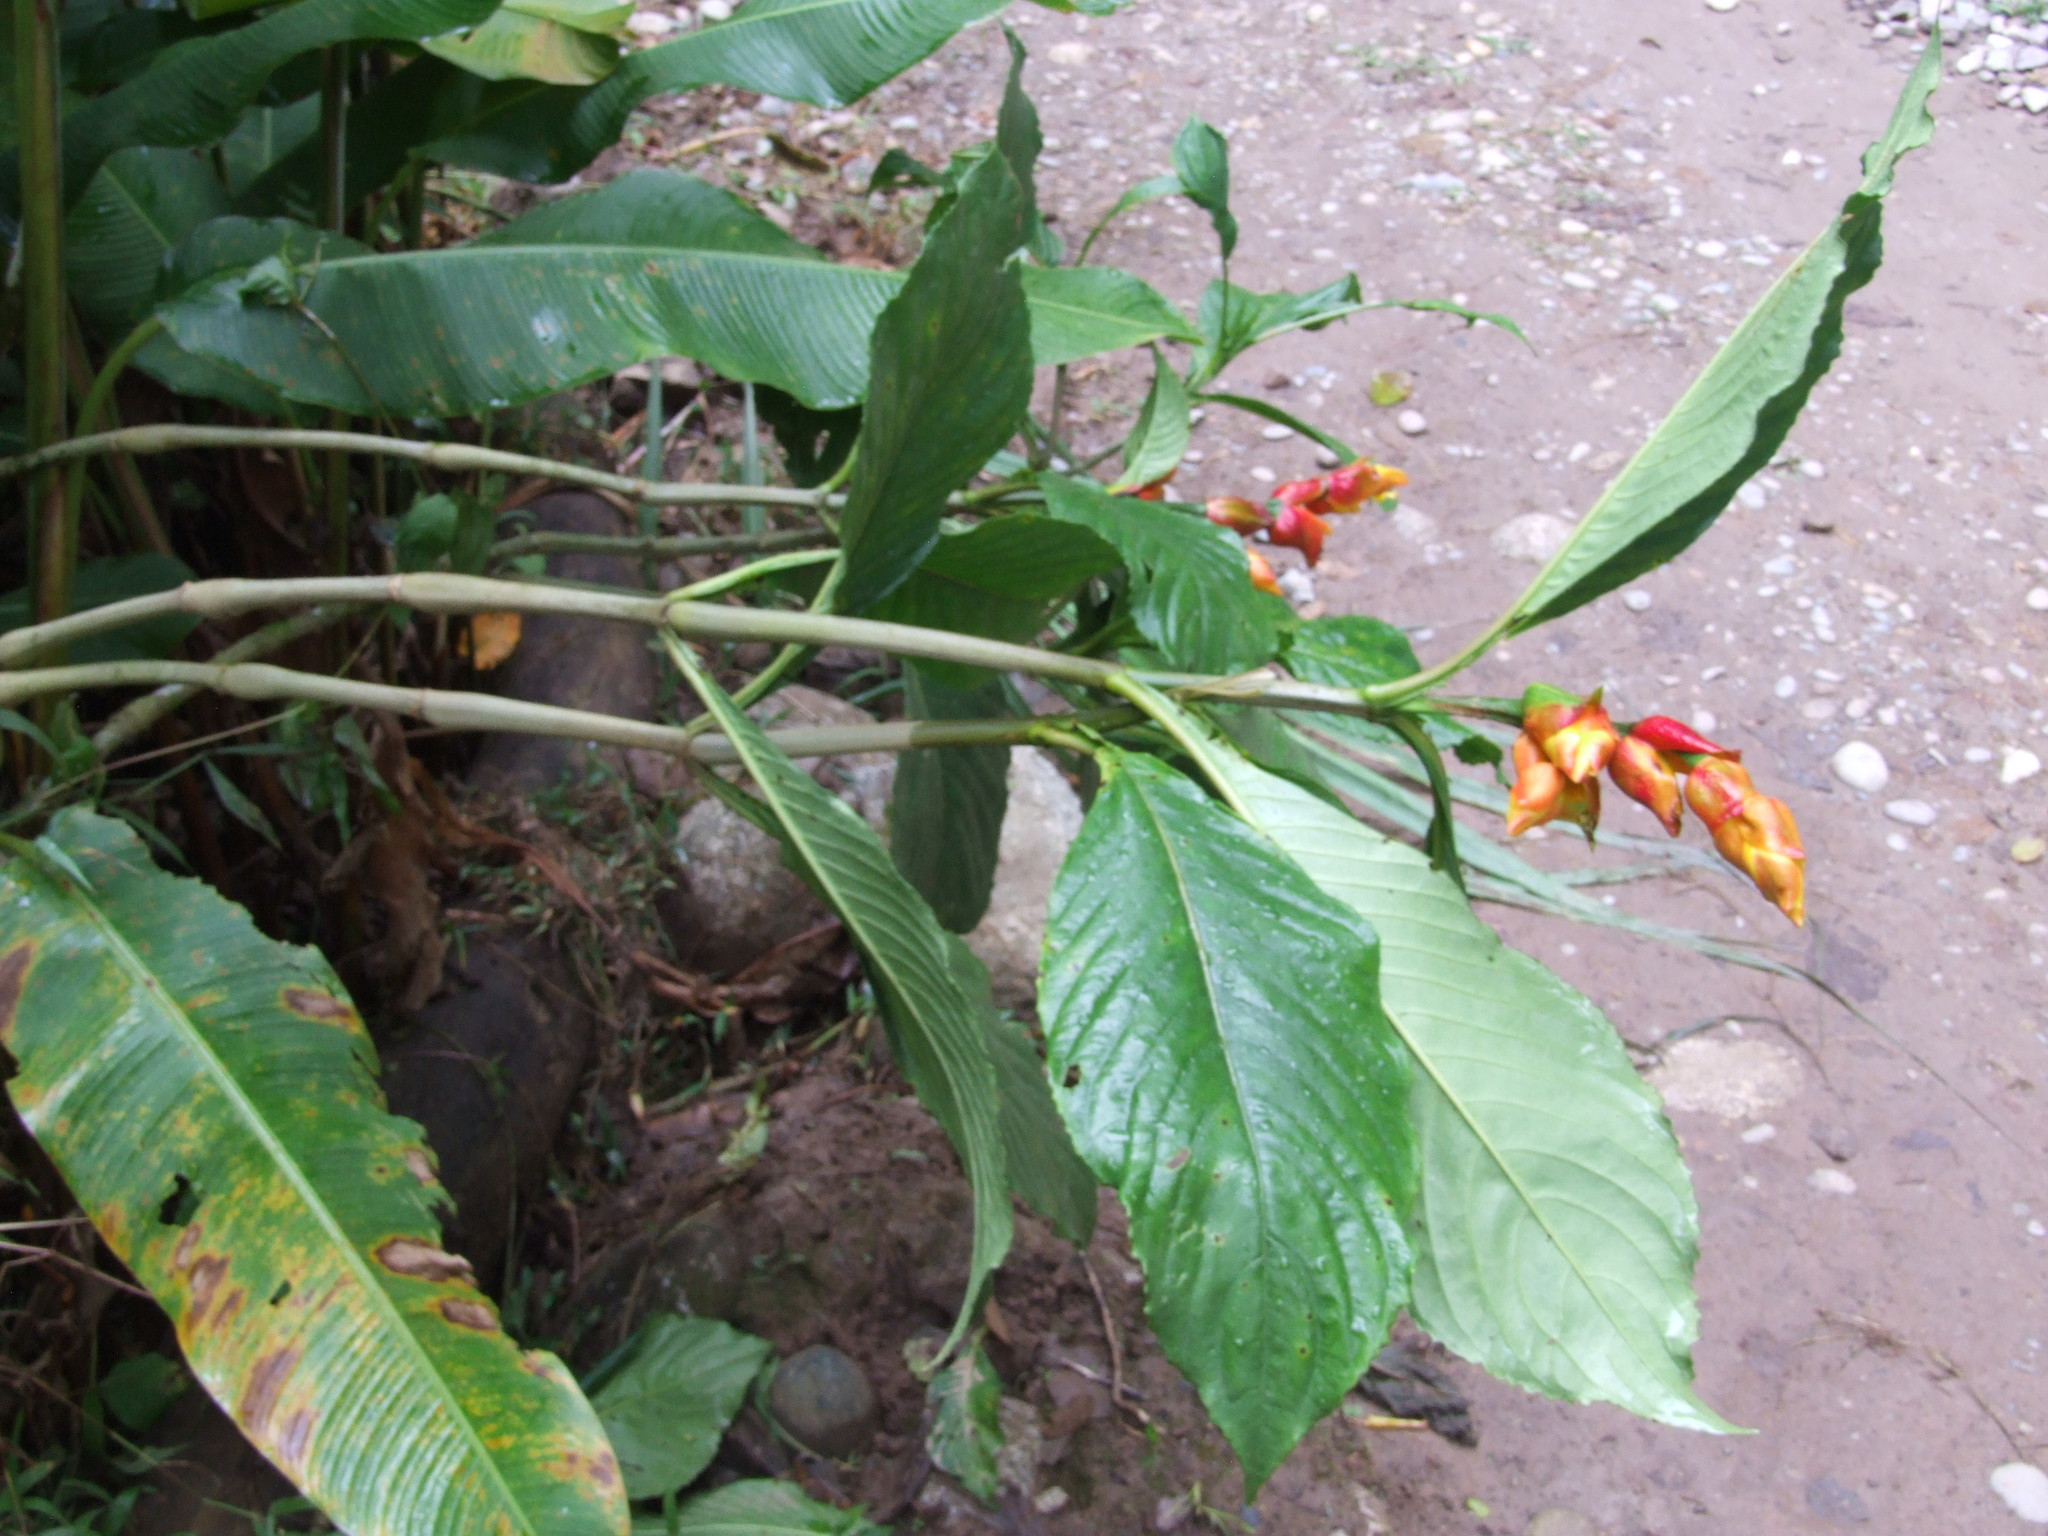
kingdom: Plantae
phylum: Tracheophyta
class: Magnoliopsida
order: Lamiales
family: Acanthaceae
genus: Sanchezia
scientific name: Sanchezia oblonga
